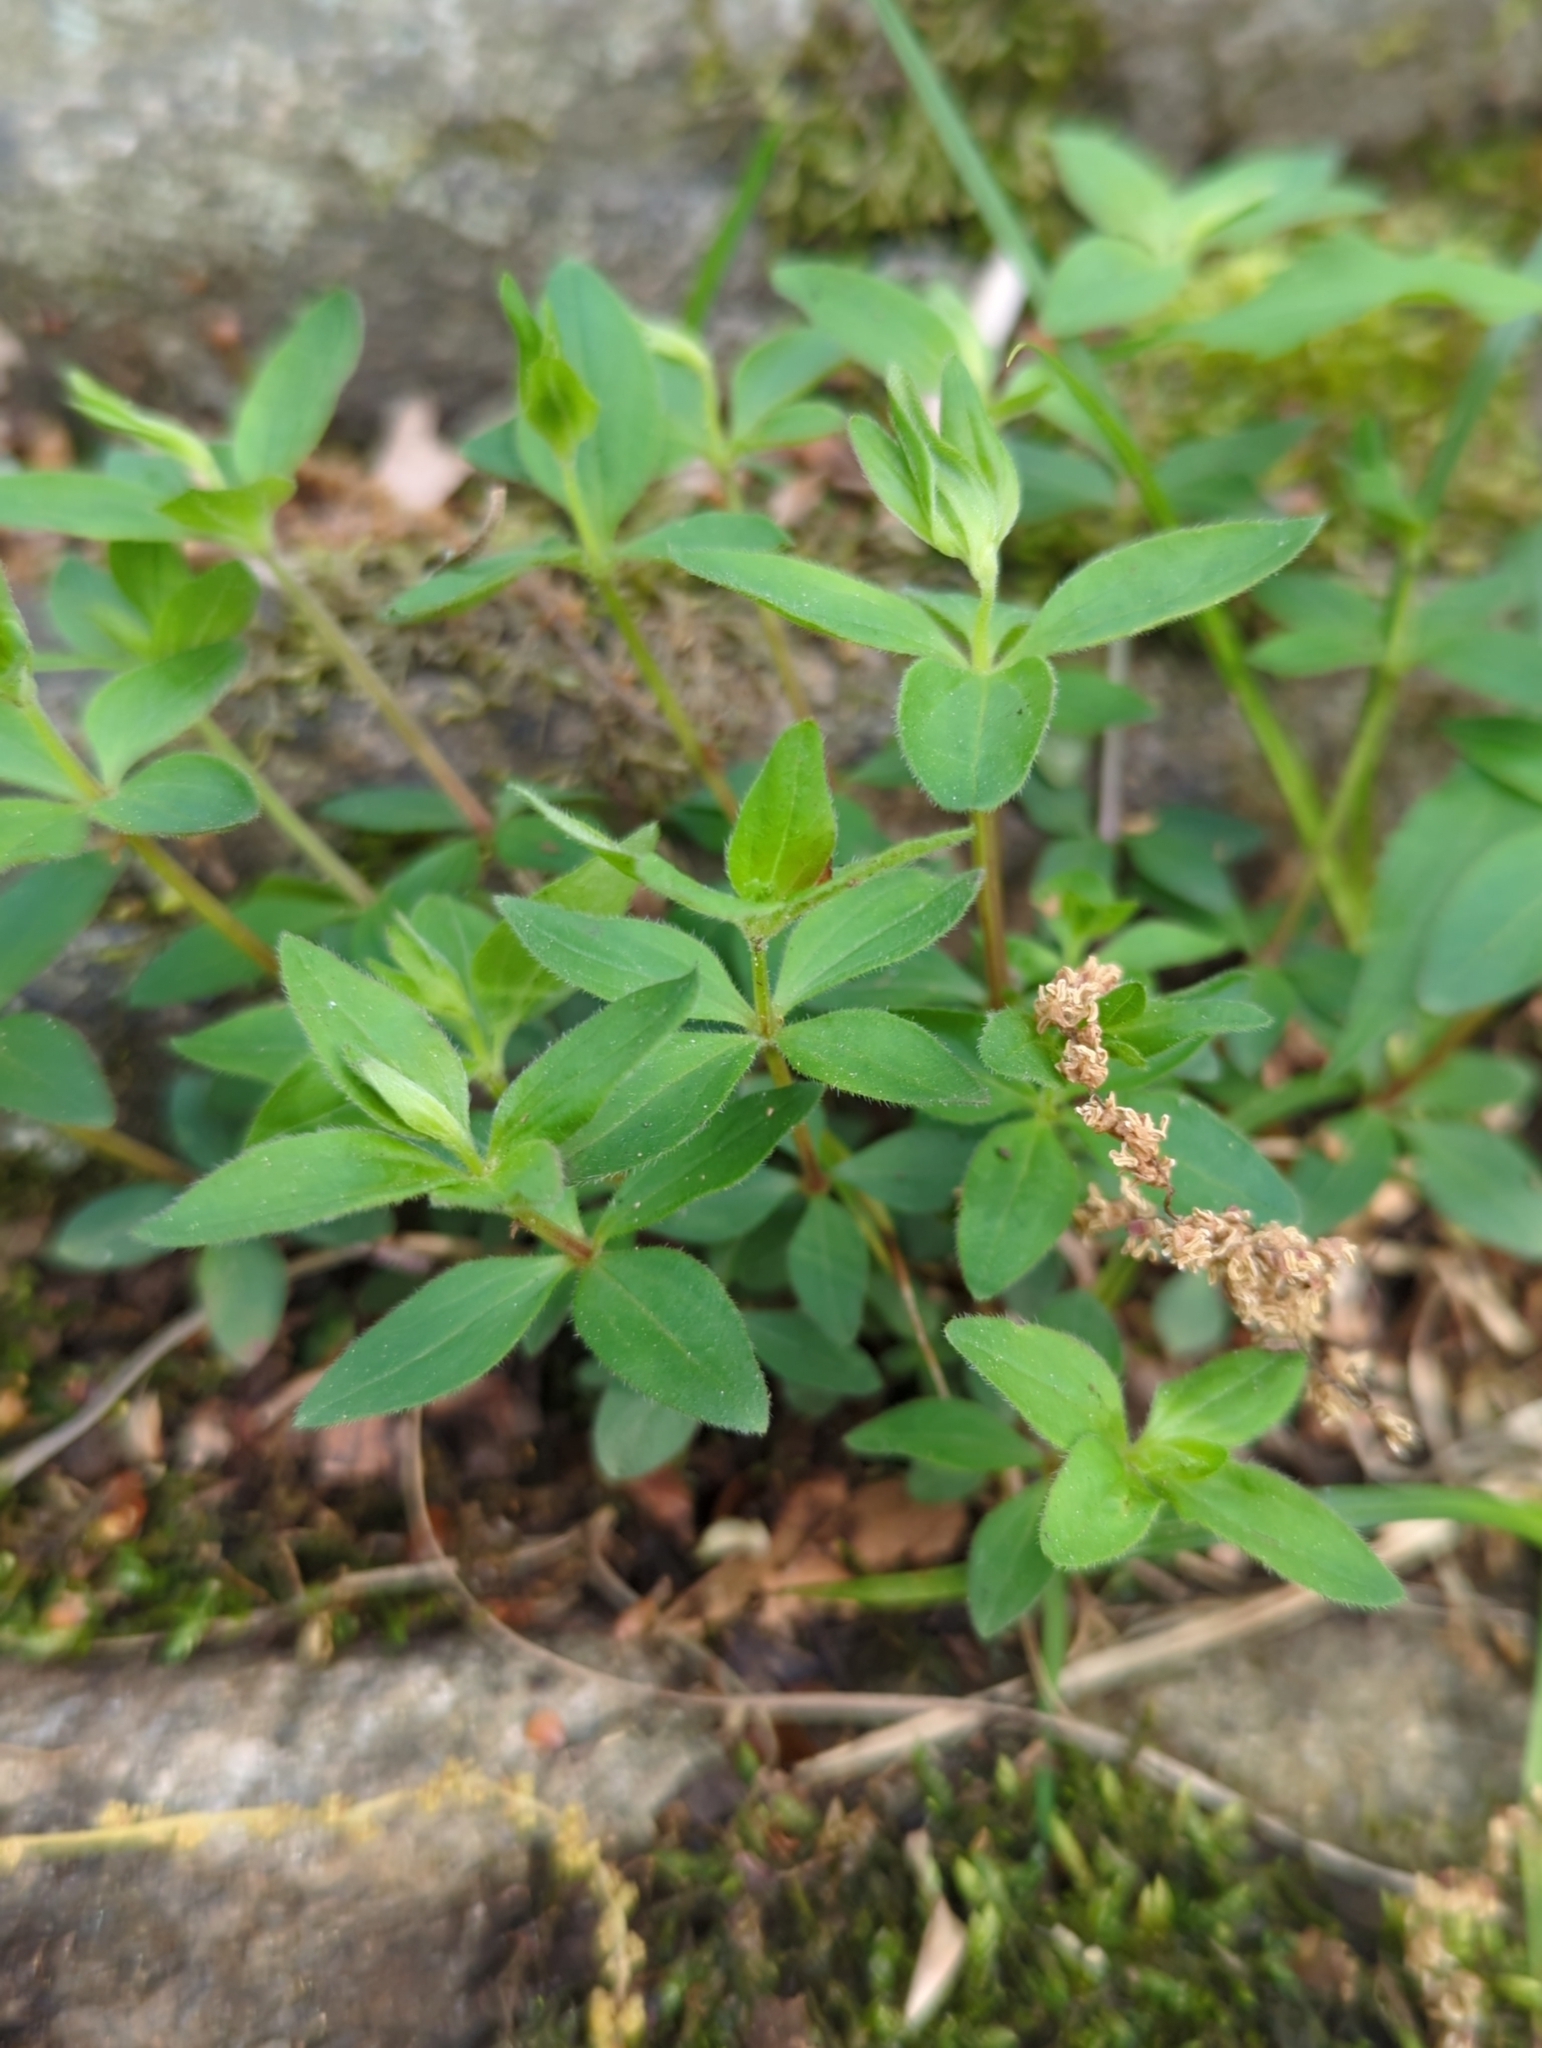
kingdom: Plantae
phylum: Tracheophyta
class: Magnoliopsida
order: Gentianales
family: Rubiaceae
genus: Galium
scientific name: Galium circaezans
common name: Forest bedstraw
